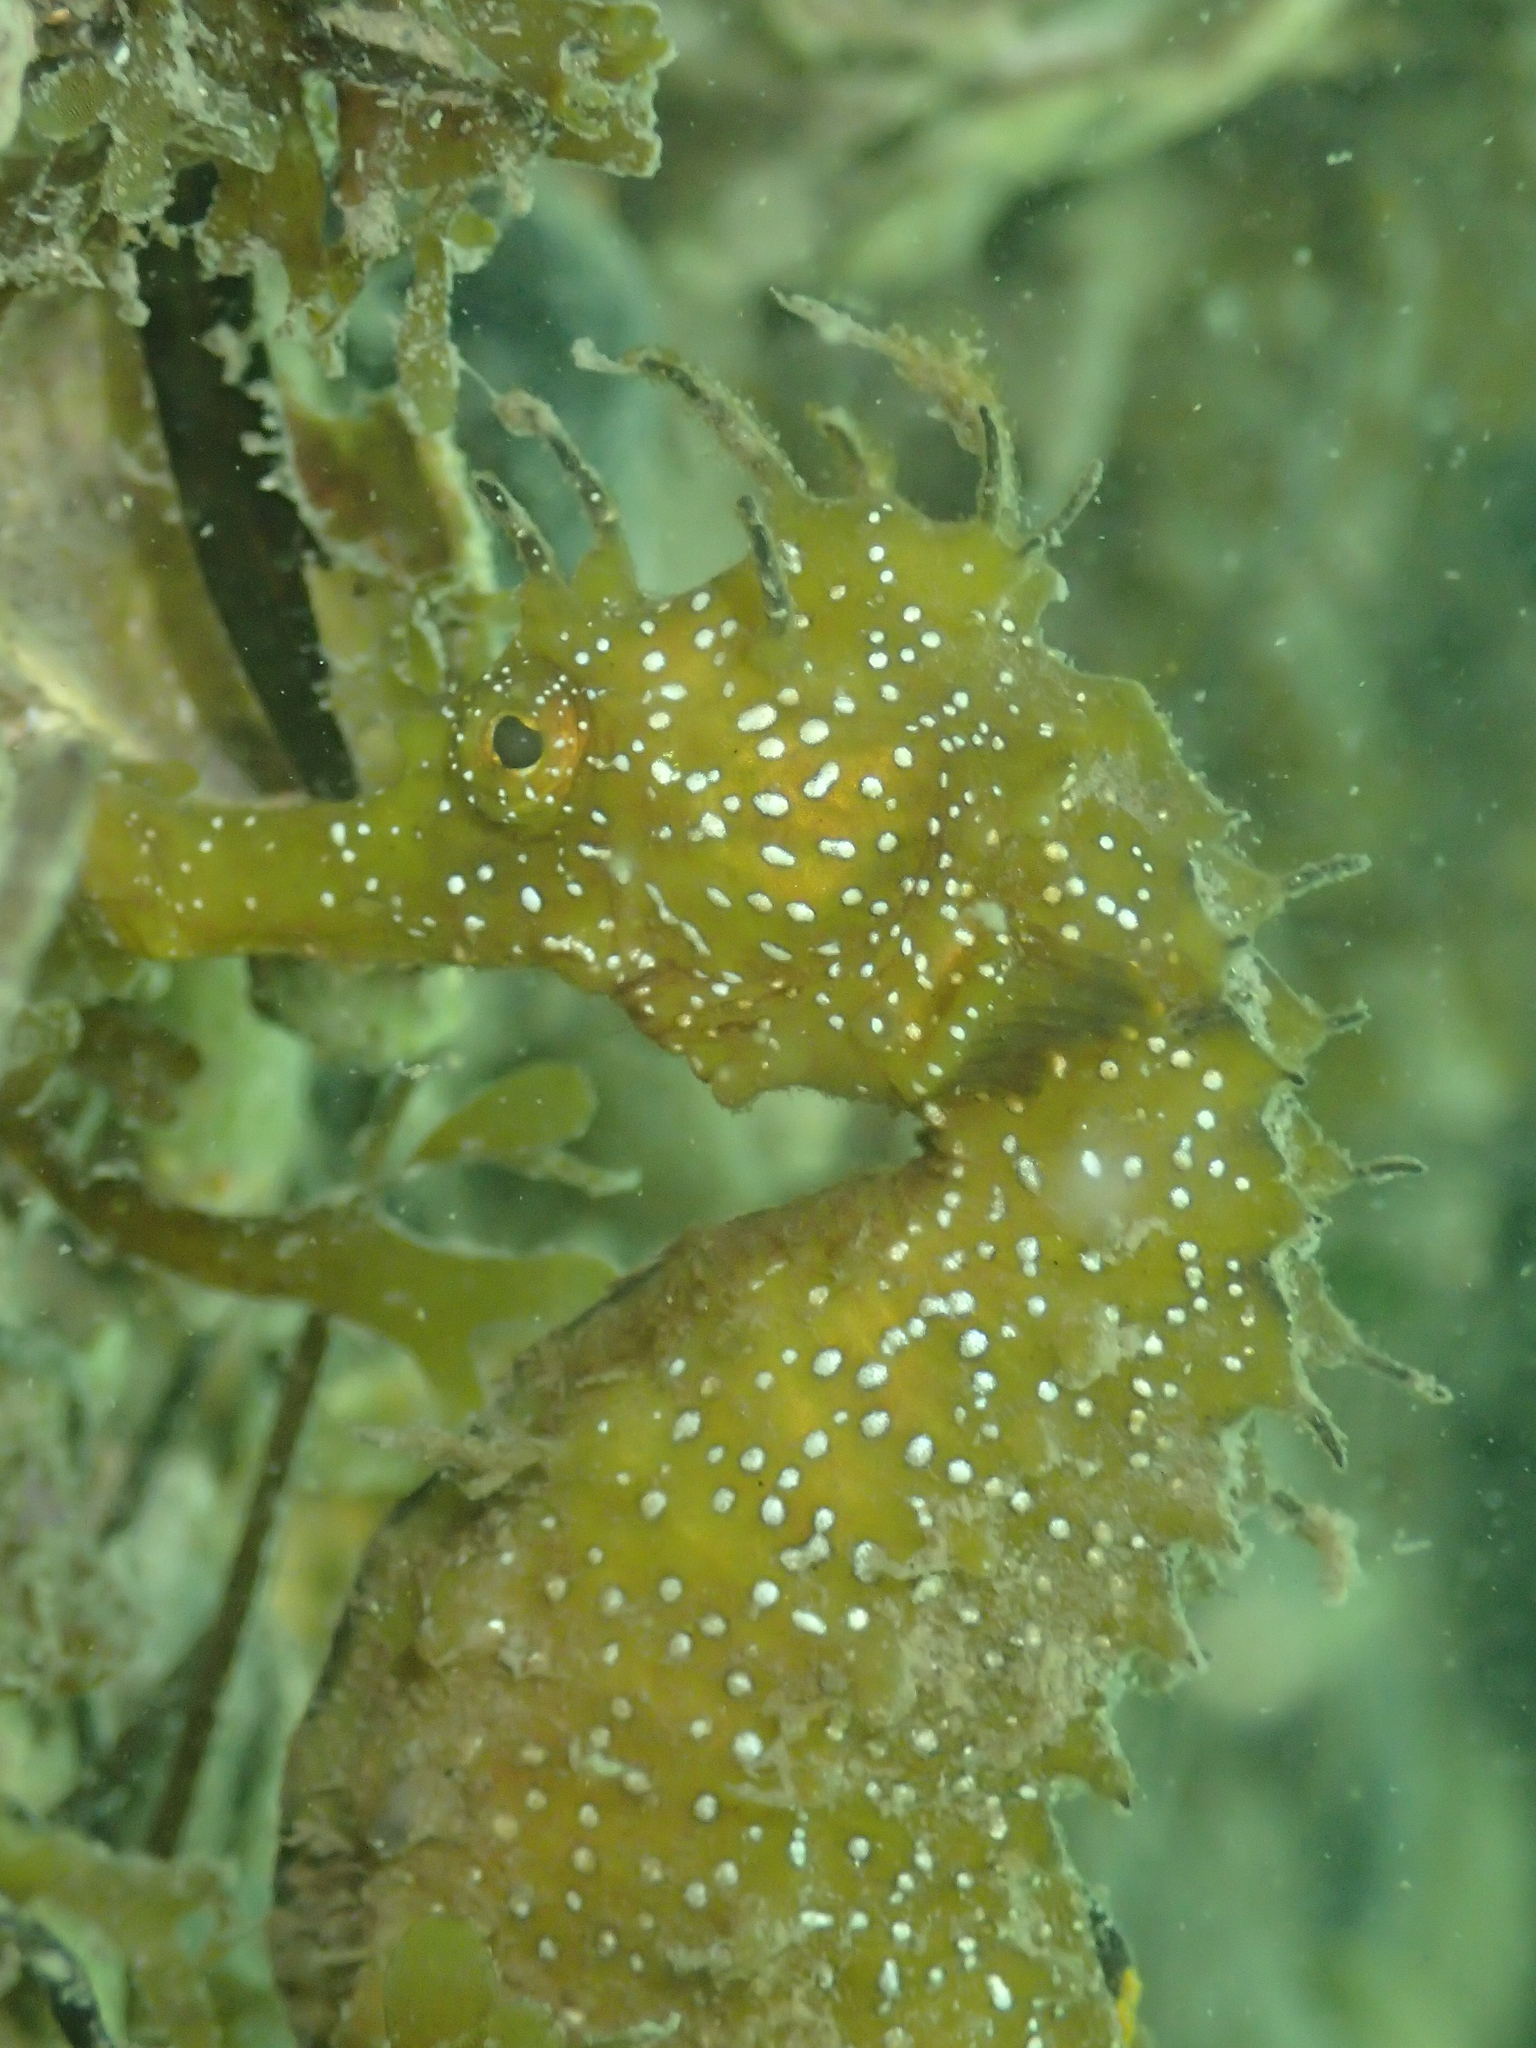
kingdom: Animalia
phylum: Chordata
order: Syngnathiformes
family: Syngnathidae
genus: Hippocampus
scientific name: Hippocampus guttulatus
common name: Long-snouted seahorse
